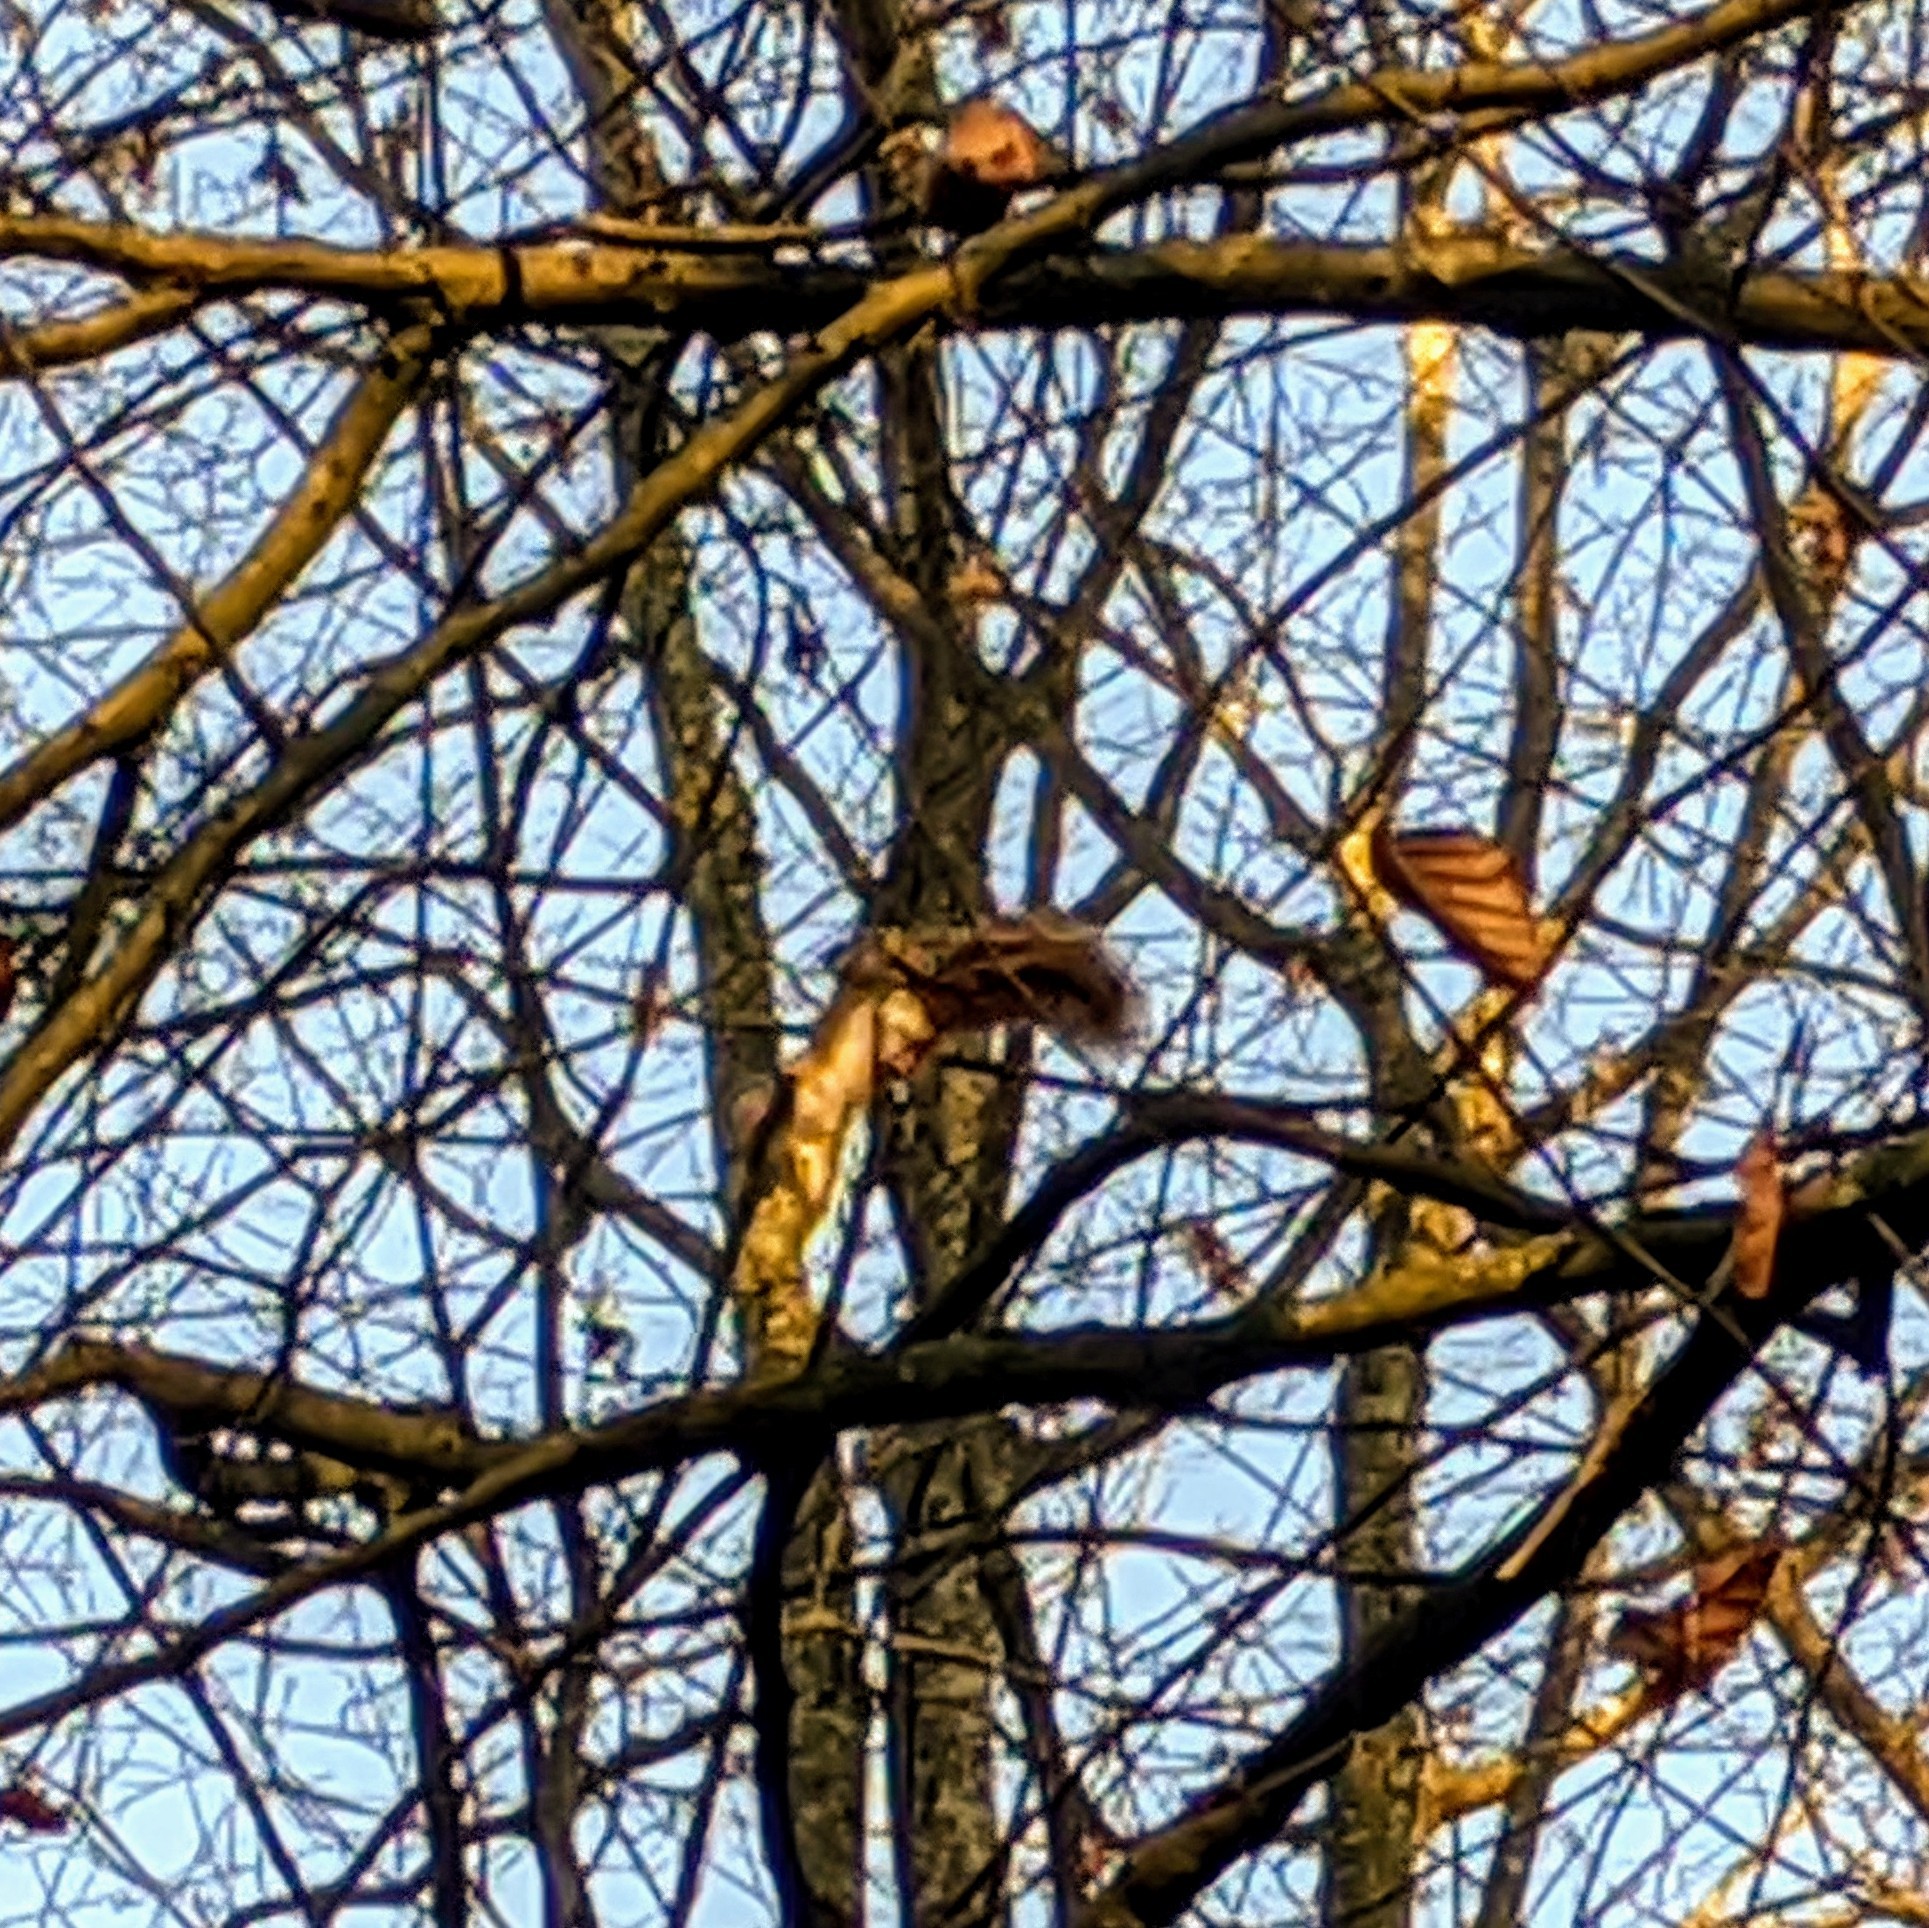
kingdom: Animalia
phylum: Chordata
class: Mammalia
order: Rodentia
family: Sciuridae
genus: Sciurus
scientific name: Sciurus vulgaris
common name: Eurasian red squirrel
